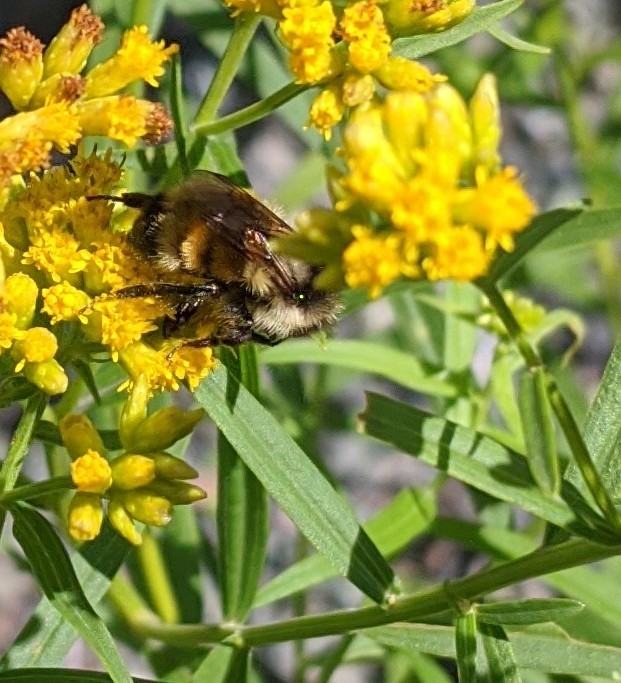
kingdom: Animalia
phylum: Arthropoda
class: Insecta
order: Hymenoptera
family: Apidae
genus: Bombus
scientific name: Bombus ternarius
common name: Tri-colored bumble bee
